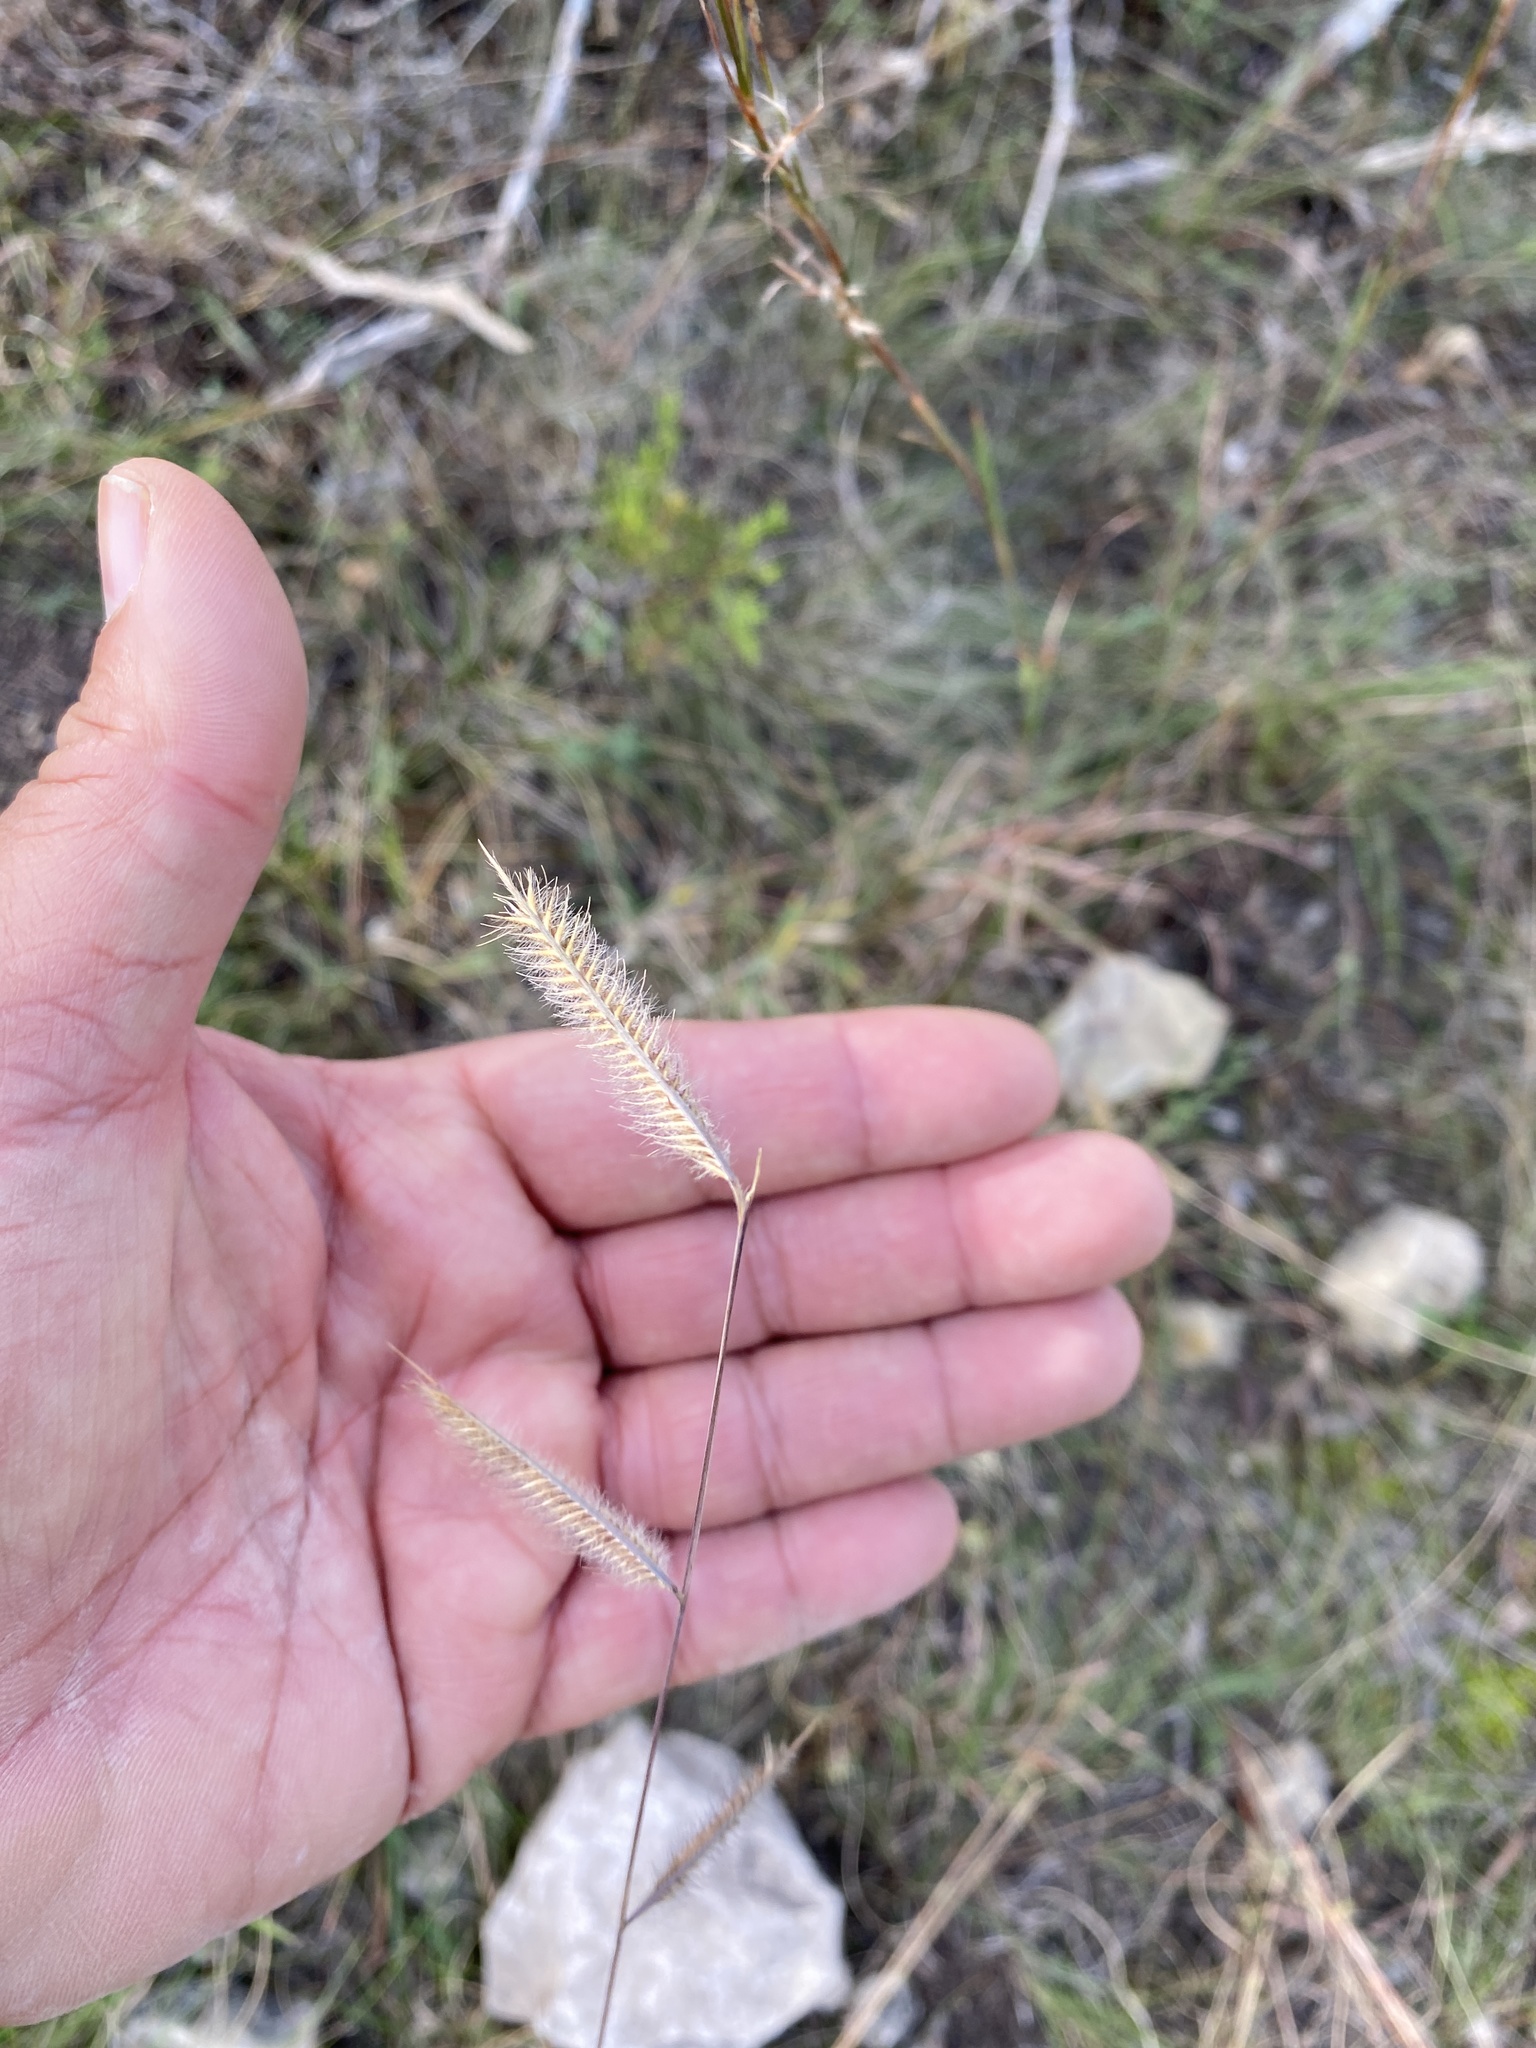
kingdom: Plantae
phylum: Tracheophyta
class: Liliopsida
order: Poales
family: Poaceae
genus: Bouteloua
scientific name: Bouteloua pectinata
